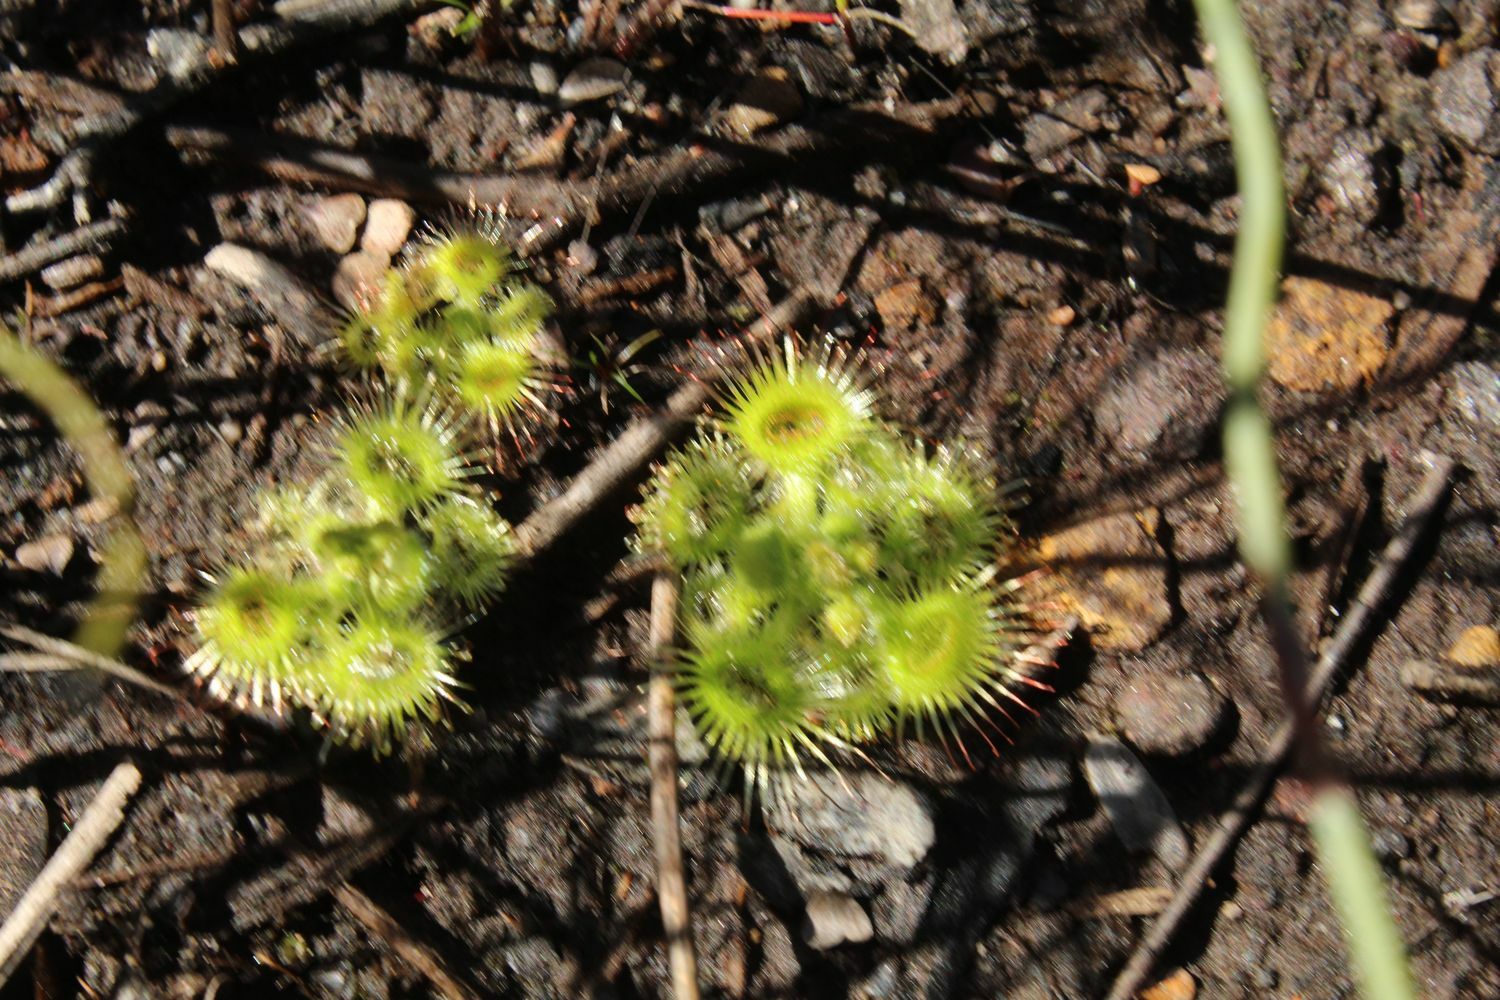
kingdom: Plantae
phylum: Tracheophyta
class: Magnoliopsida
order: Caryophyllales
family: Droseraceae
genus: Drosera
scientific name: Drosera glanduligera
